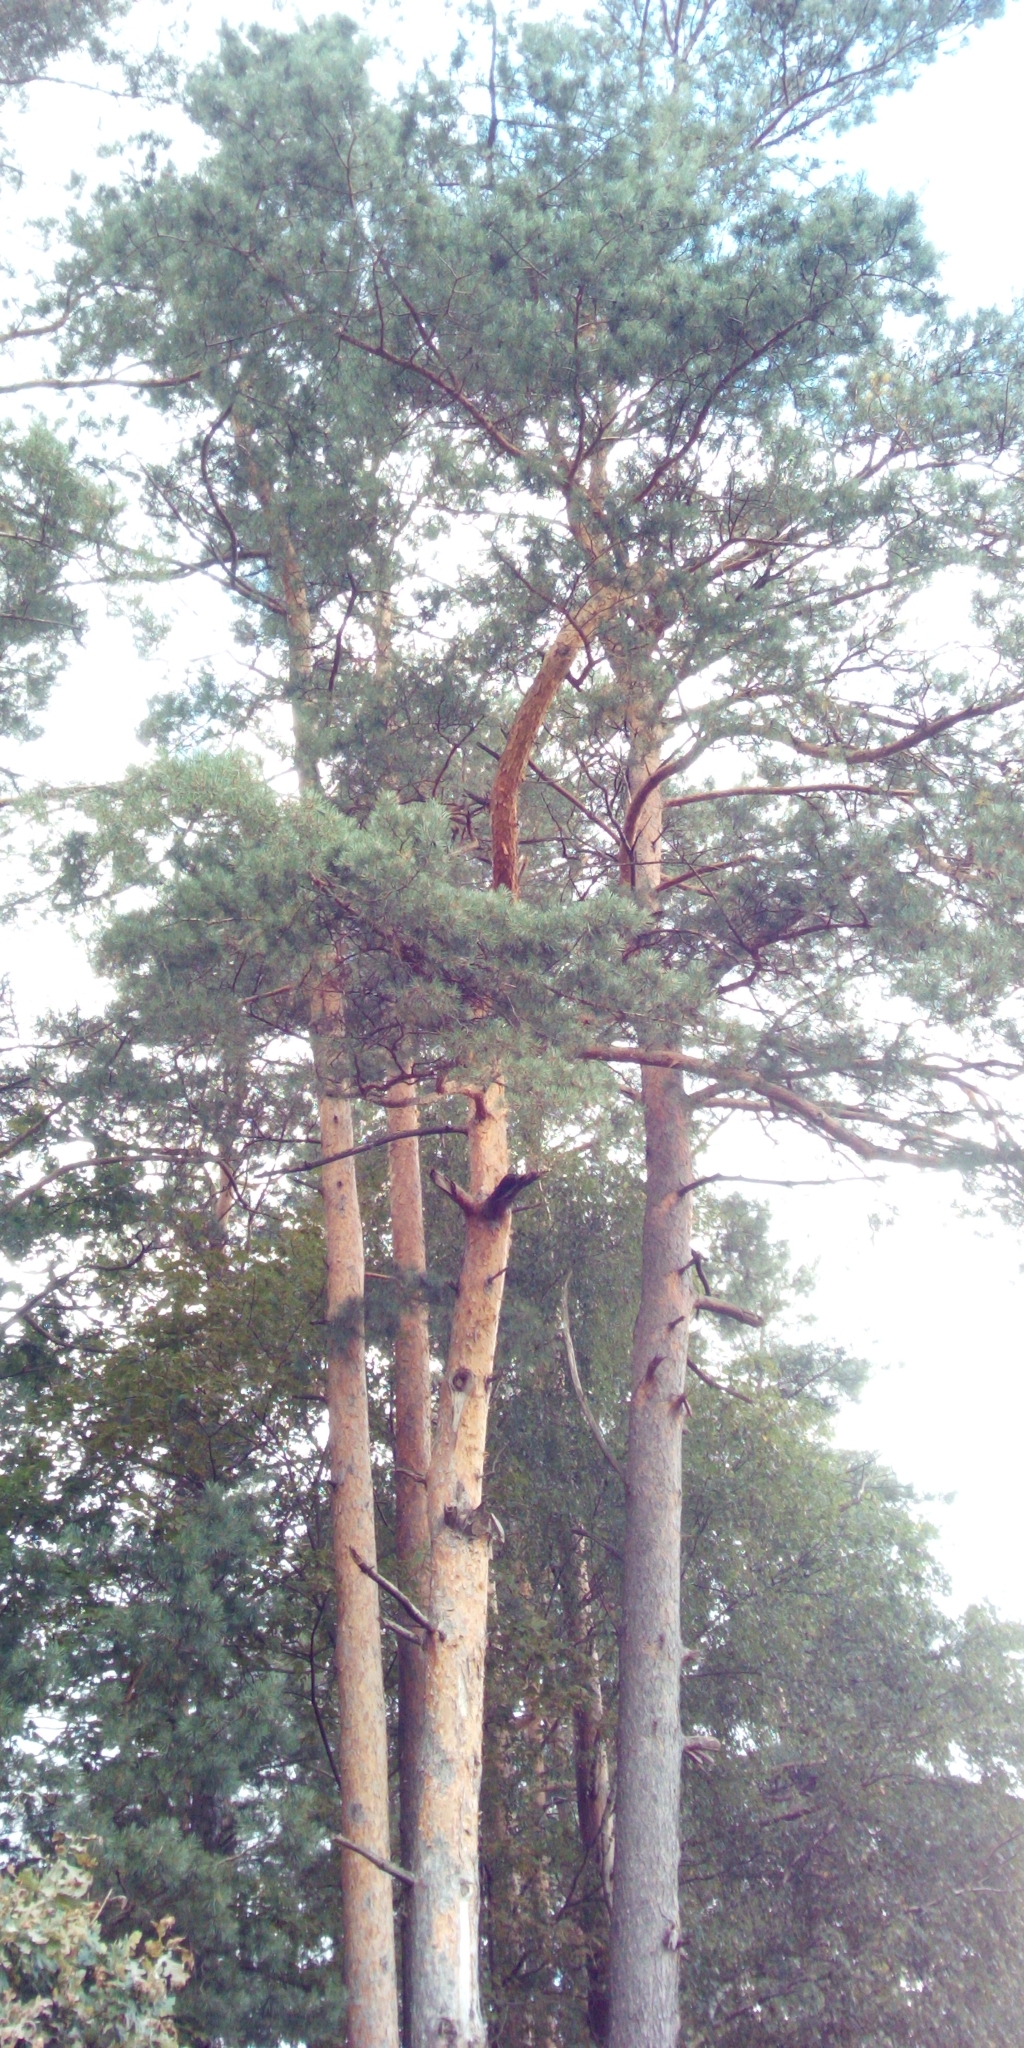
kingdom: Plantae
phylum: Tracheophyta
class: Pinopsida
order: Pinales
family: Pinaceae
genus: Pinus
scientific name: Pinus sylvestris
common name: Scots pine
